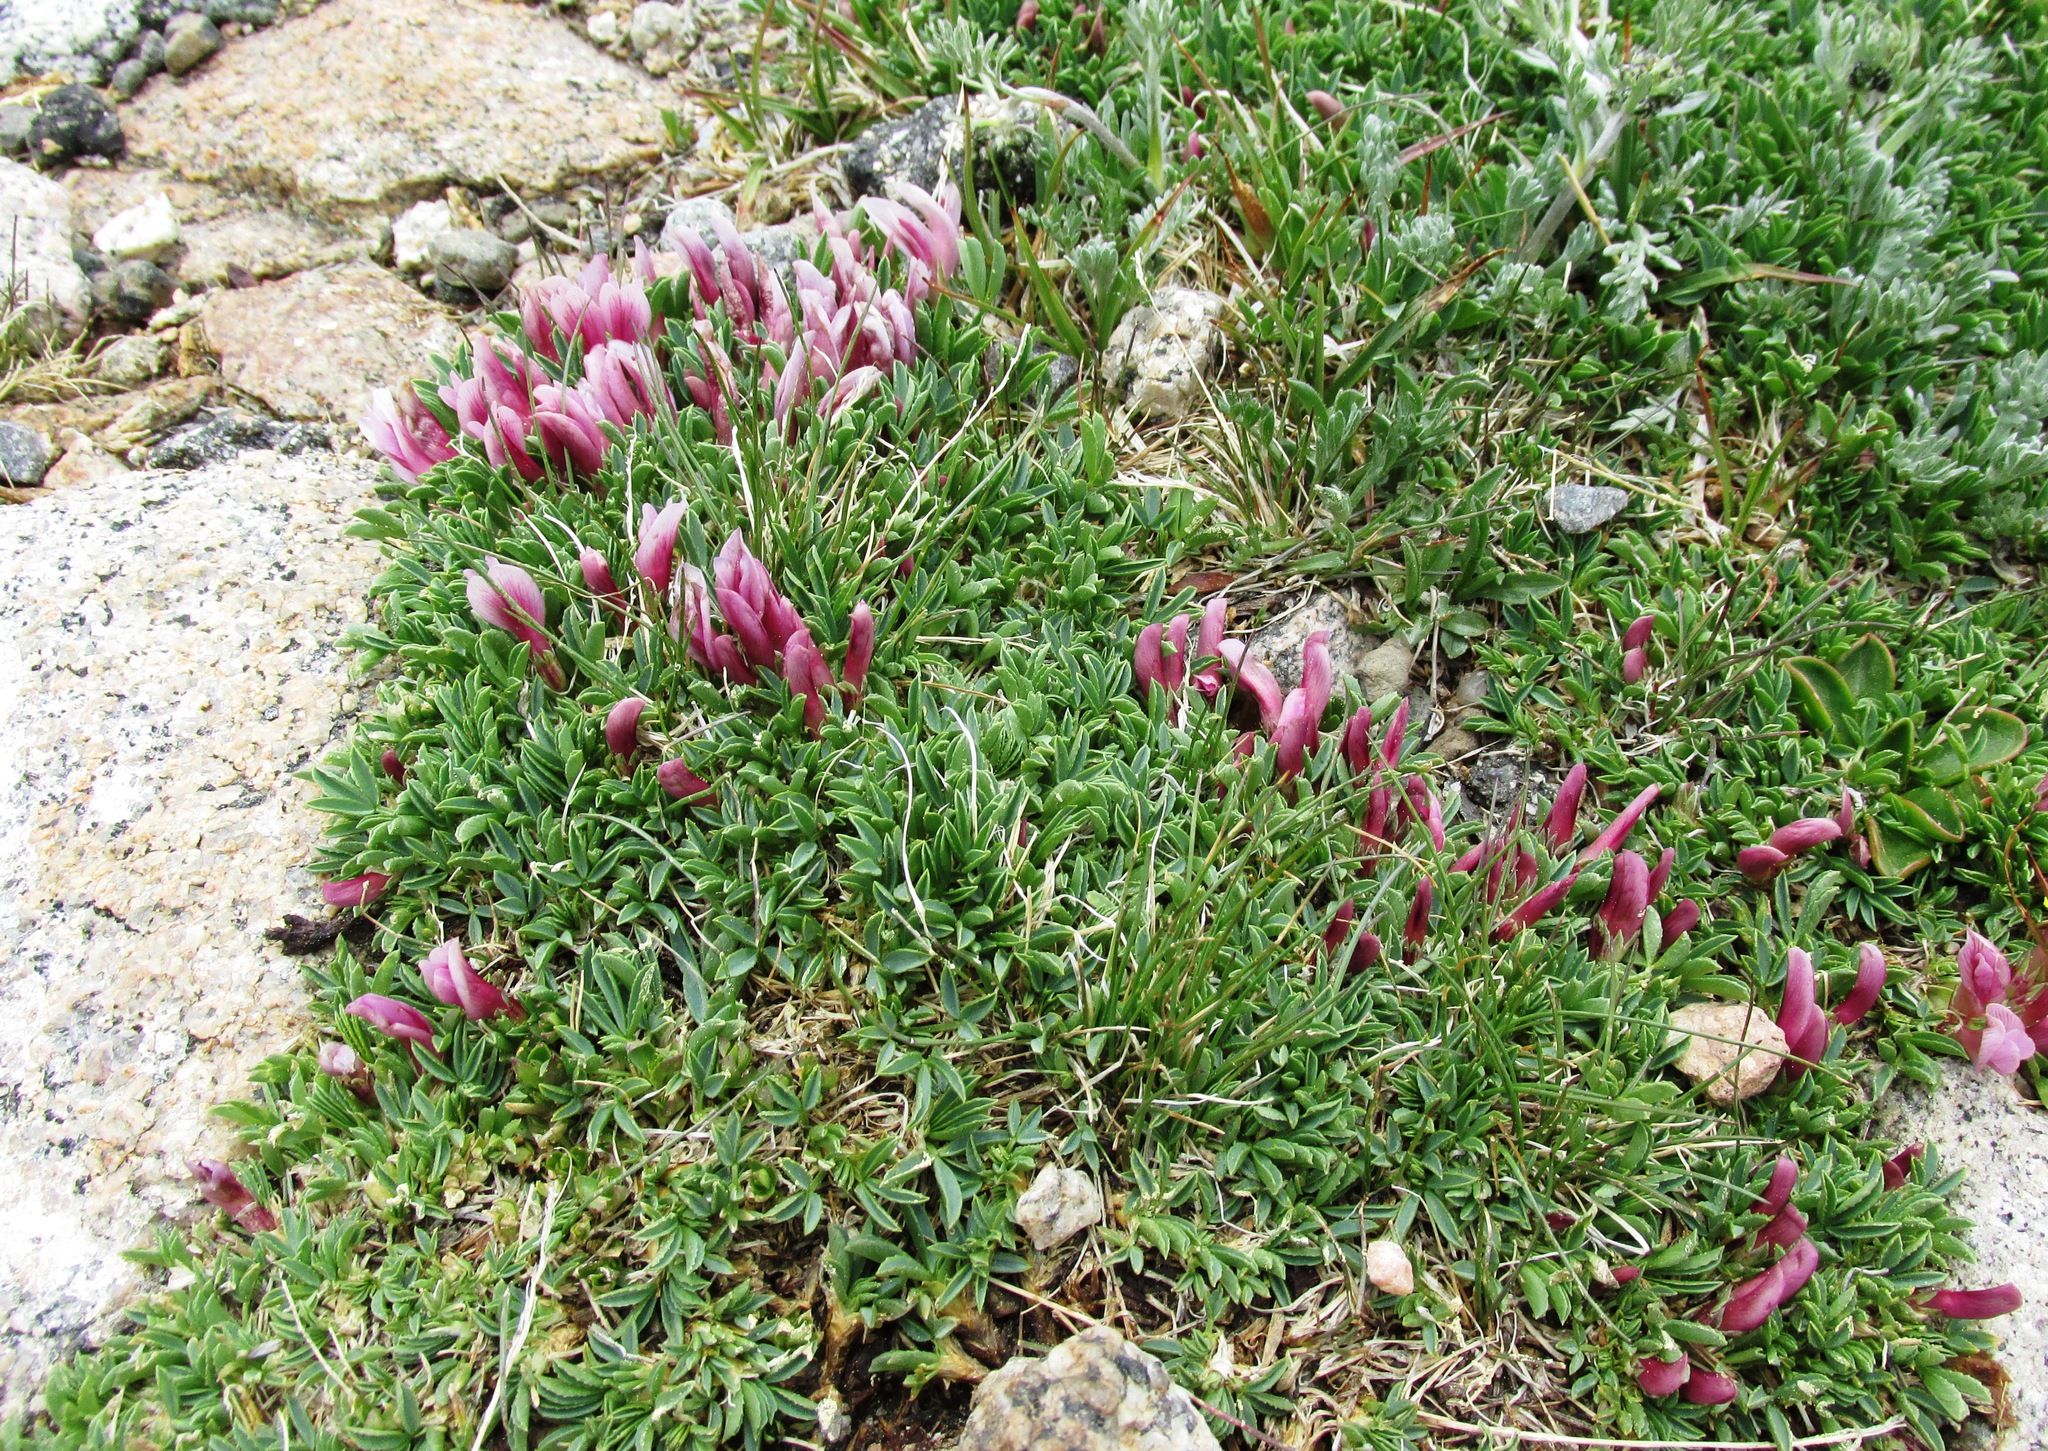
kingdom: Plantae
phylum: Tracheophyta
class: Magnoliopsida
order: Fabales
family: Fabaceae
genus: Trifolium
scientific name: Trifolium nanum
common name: Tundra clover
